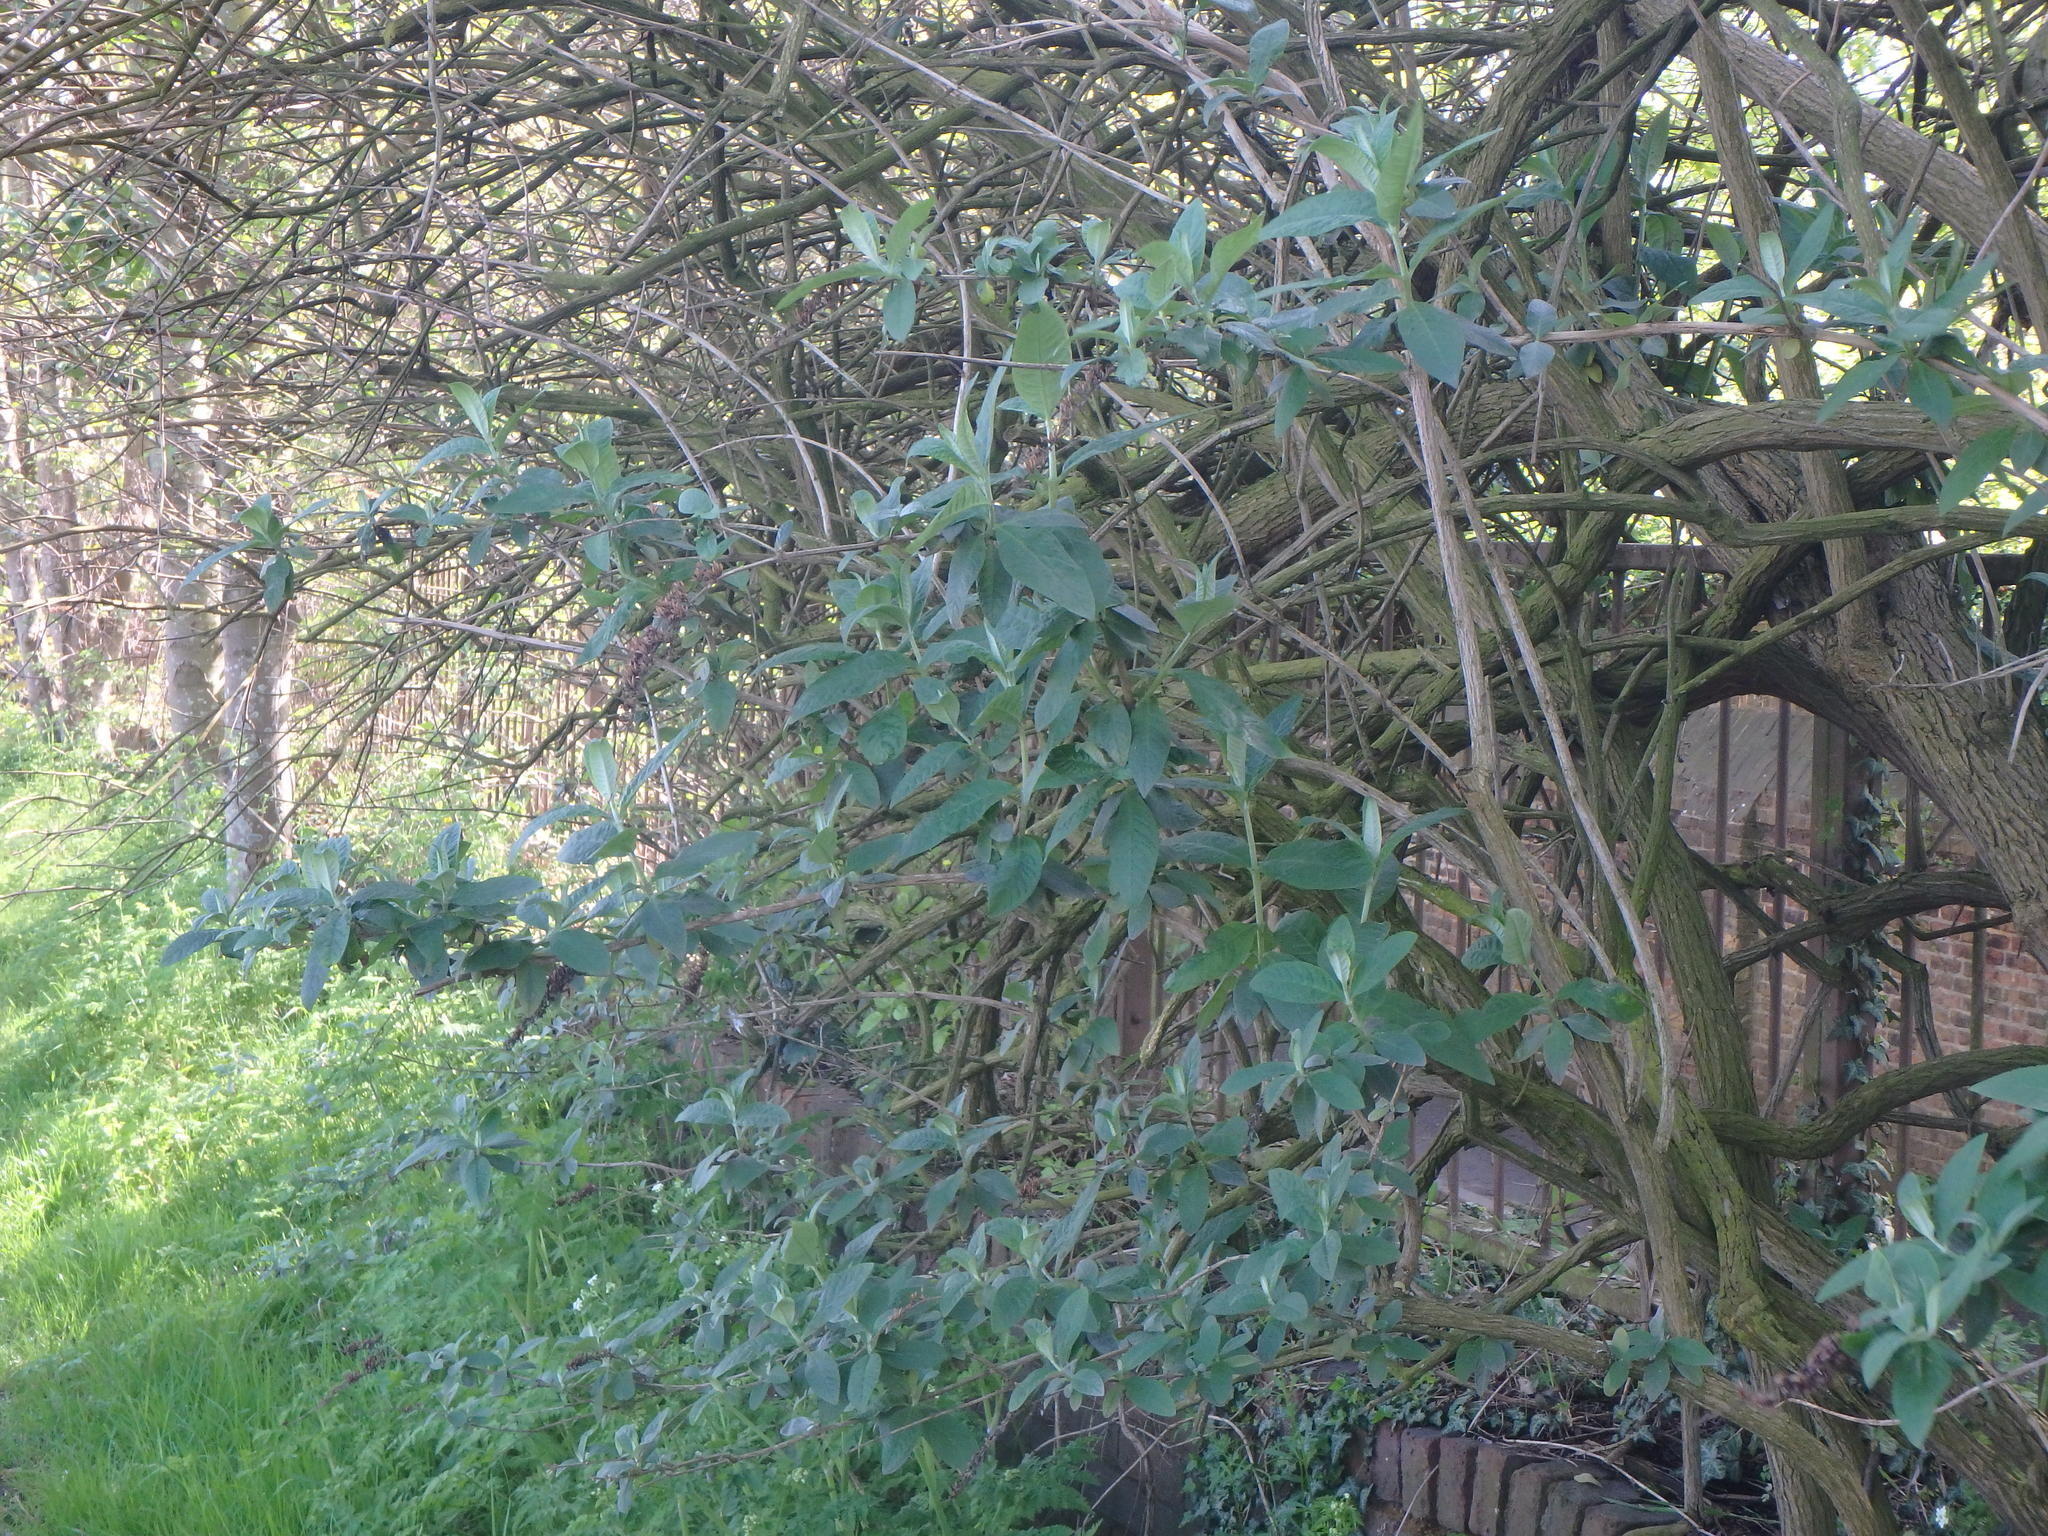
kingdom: Plantae
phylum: Tracheophyta
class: Magnoliopsida
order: Lamiales
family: Scrophulariaceae
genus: Buddleja
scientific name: Buddleja davidii
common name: Butterfly-bush
